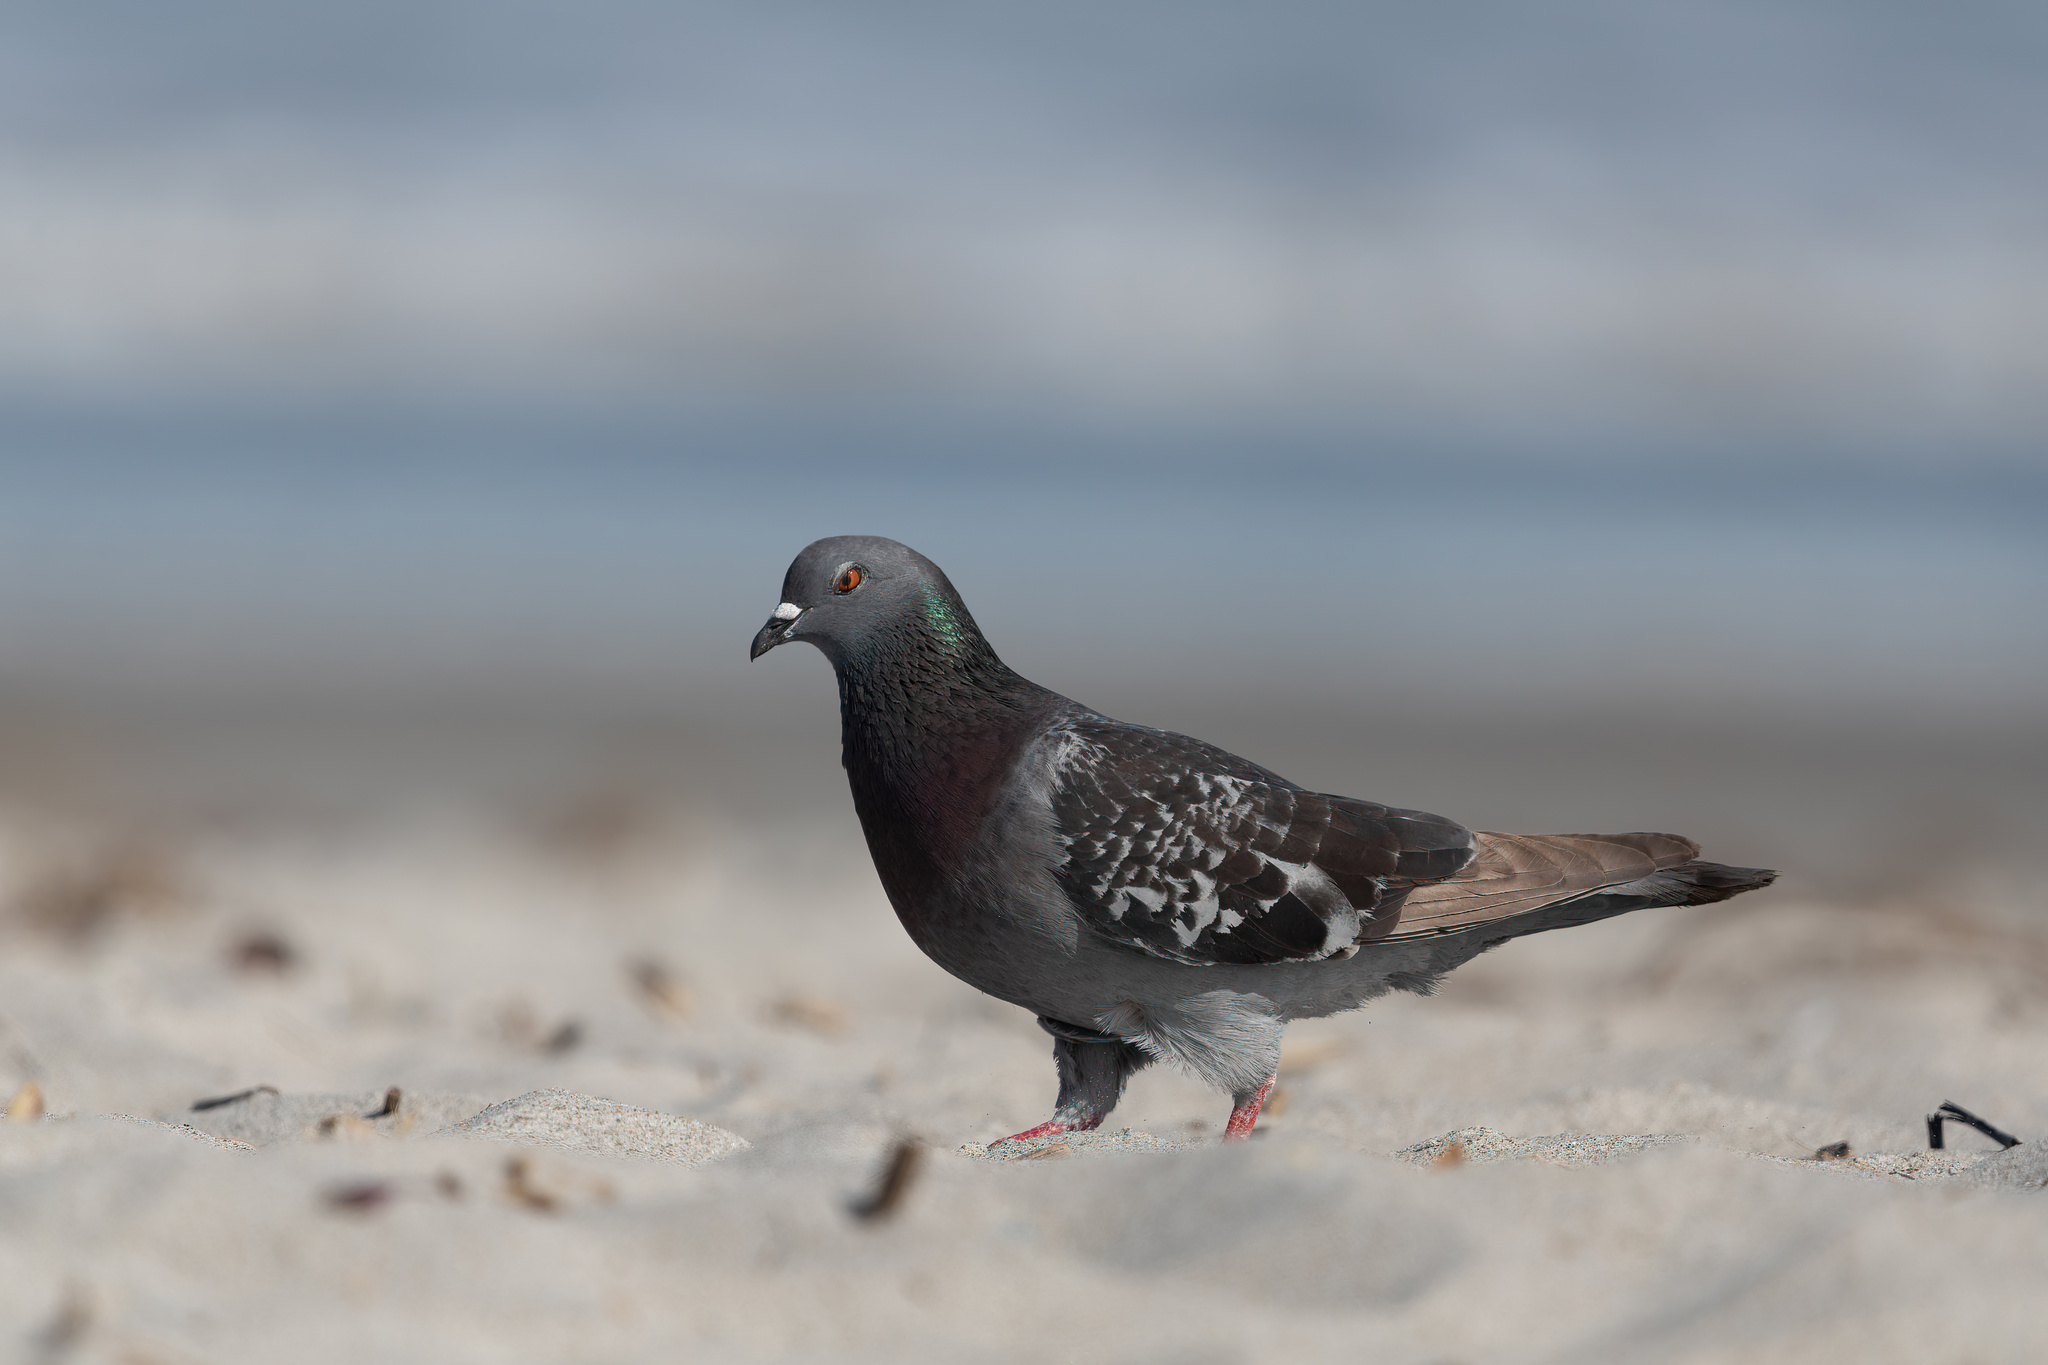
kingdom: Animalia
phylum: Chordata
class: Aves
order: Columbiformes
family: Columbidae
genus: Columba
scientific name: Columba livia
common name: Rock pigeon
